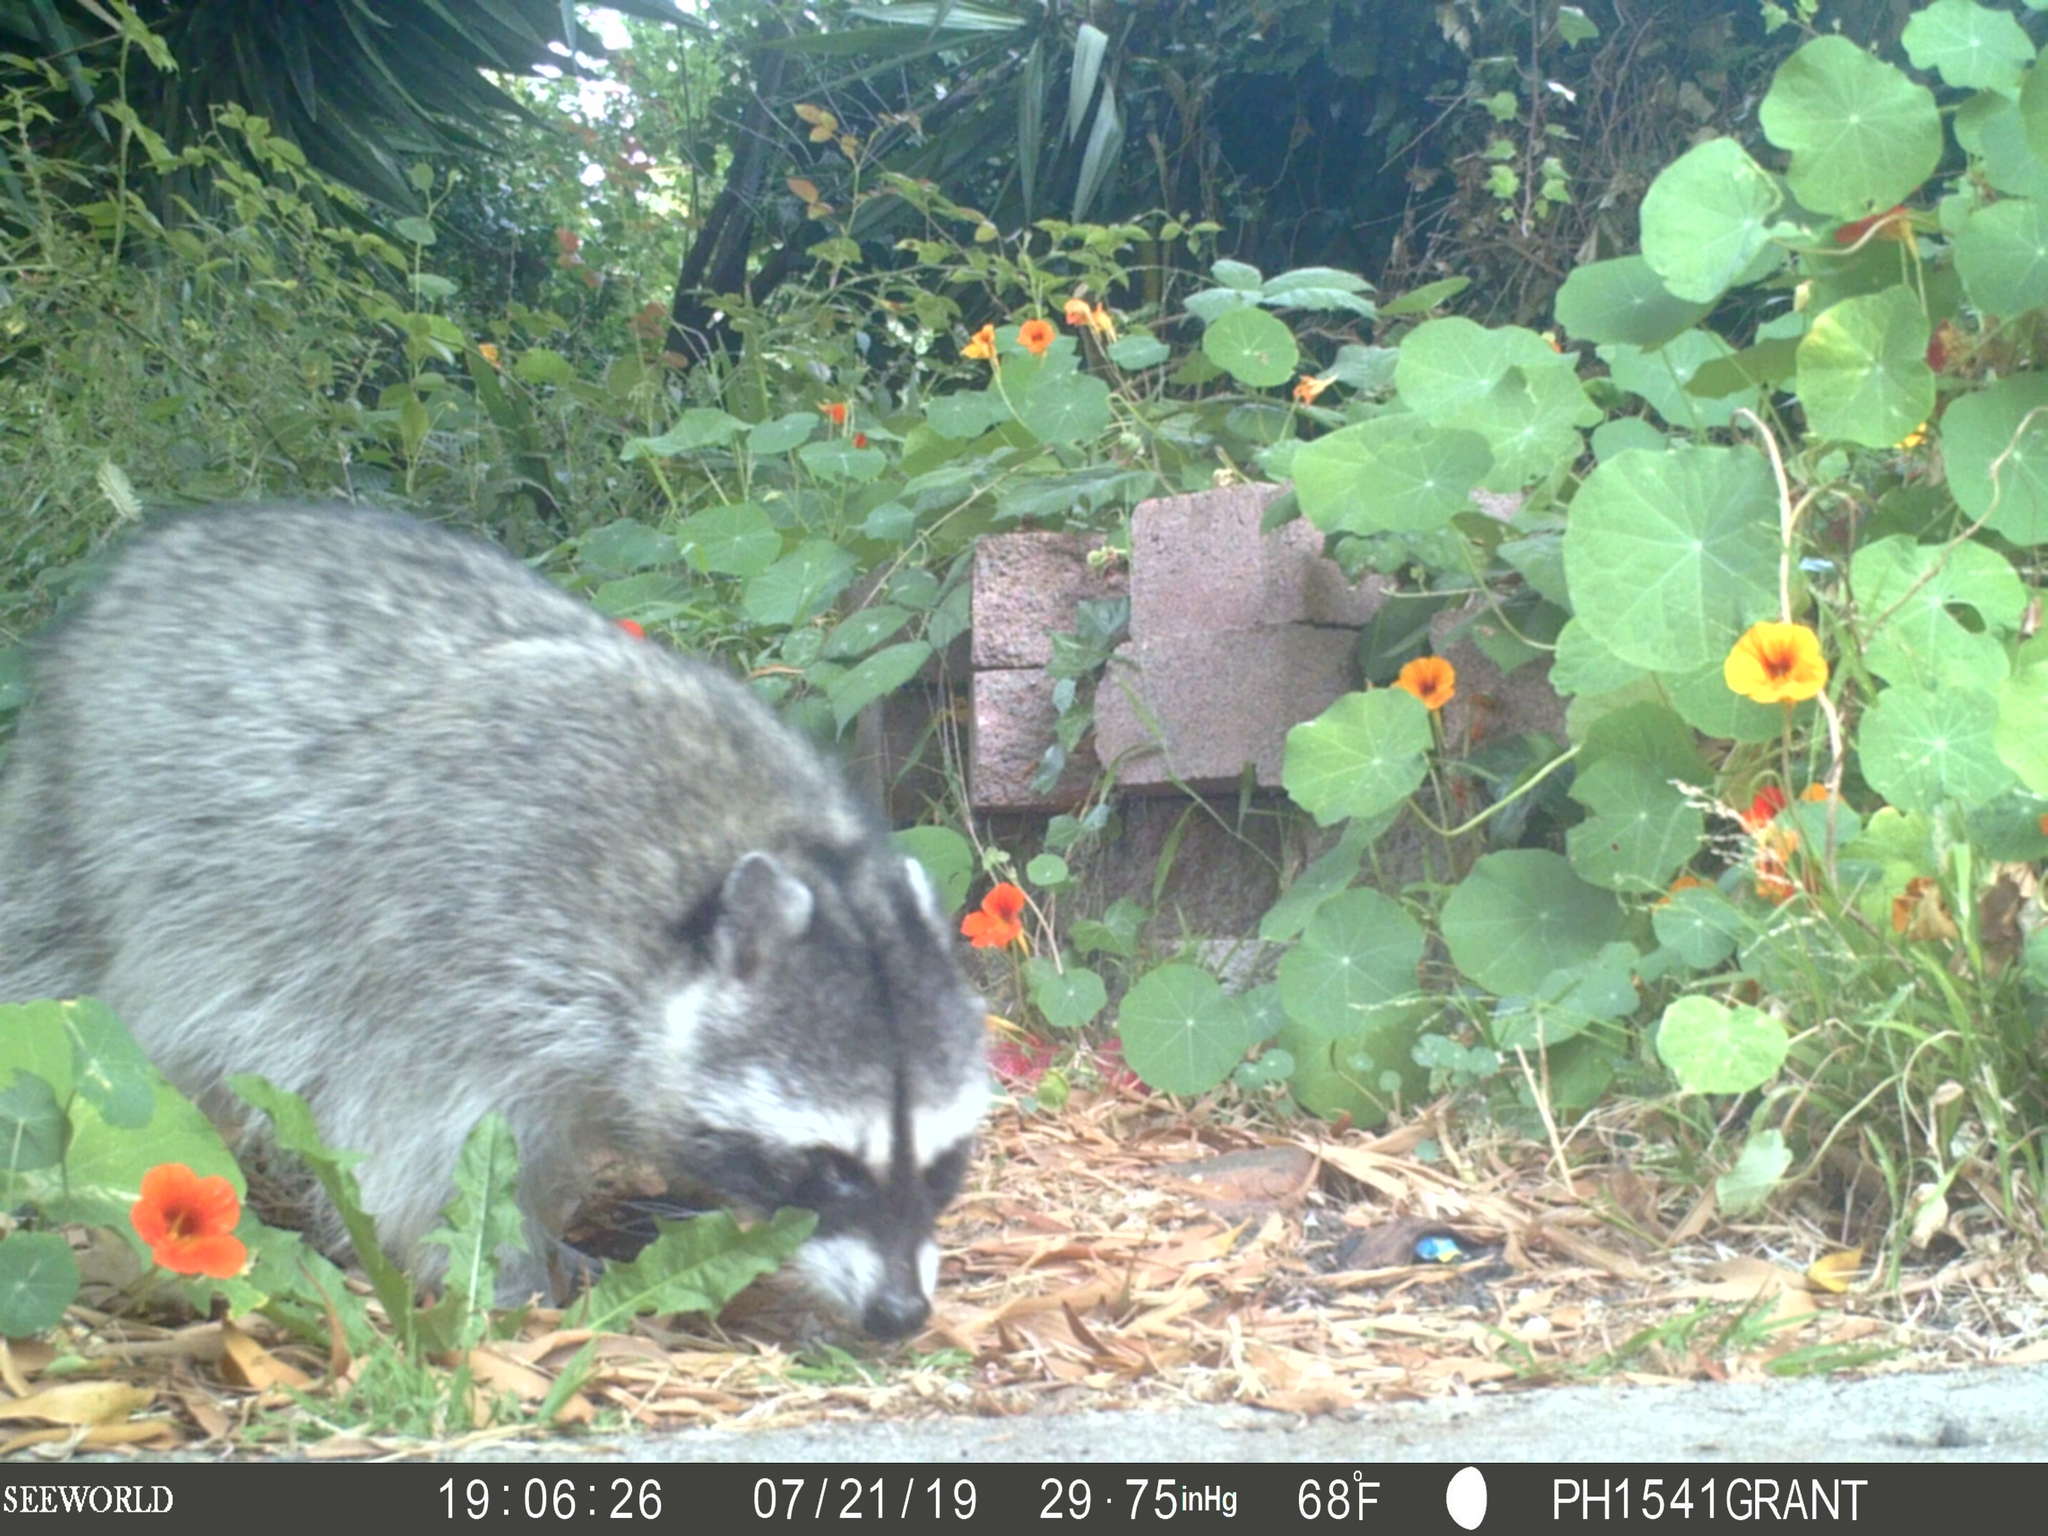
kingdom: Animalia
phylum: Chordata
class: Mammalia
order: Carnivora
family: Procyonidae
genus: Procyon
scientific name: Procyon lotor
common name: Raccoon
